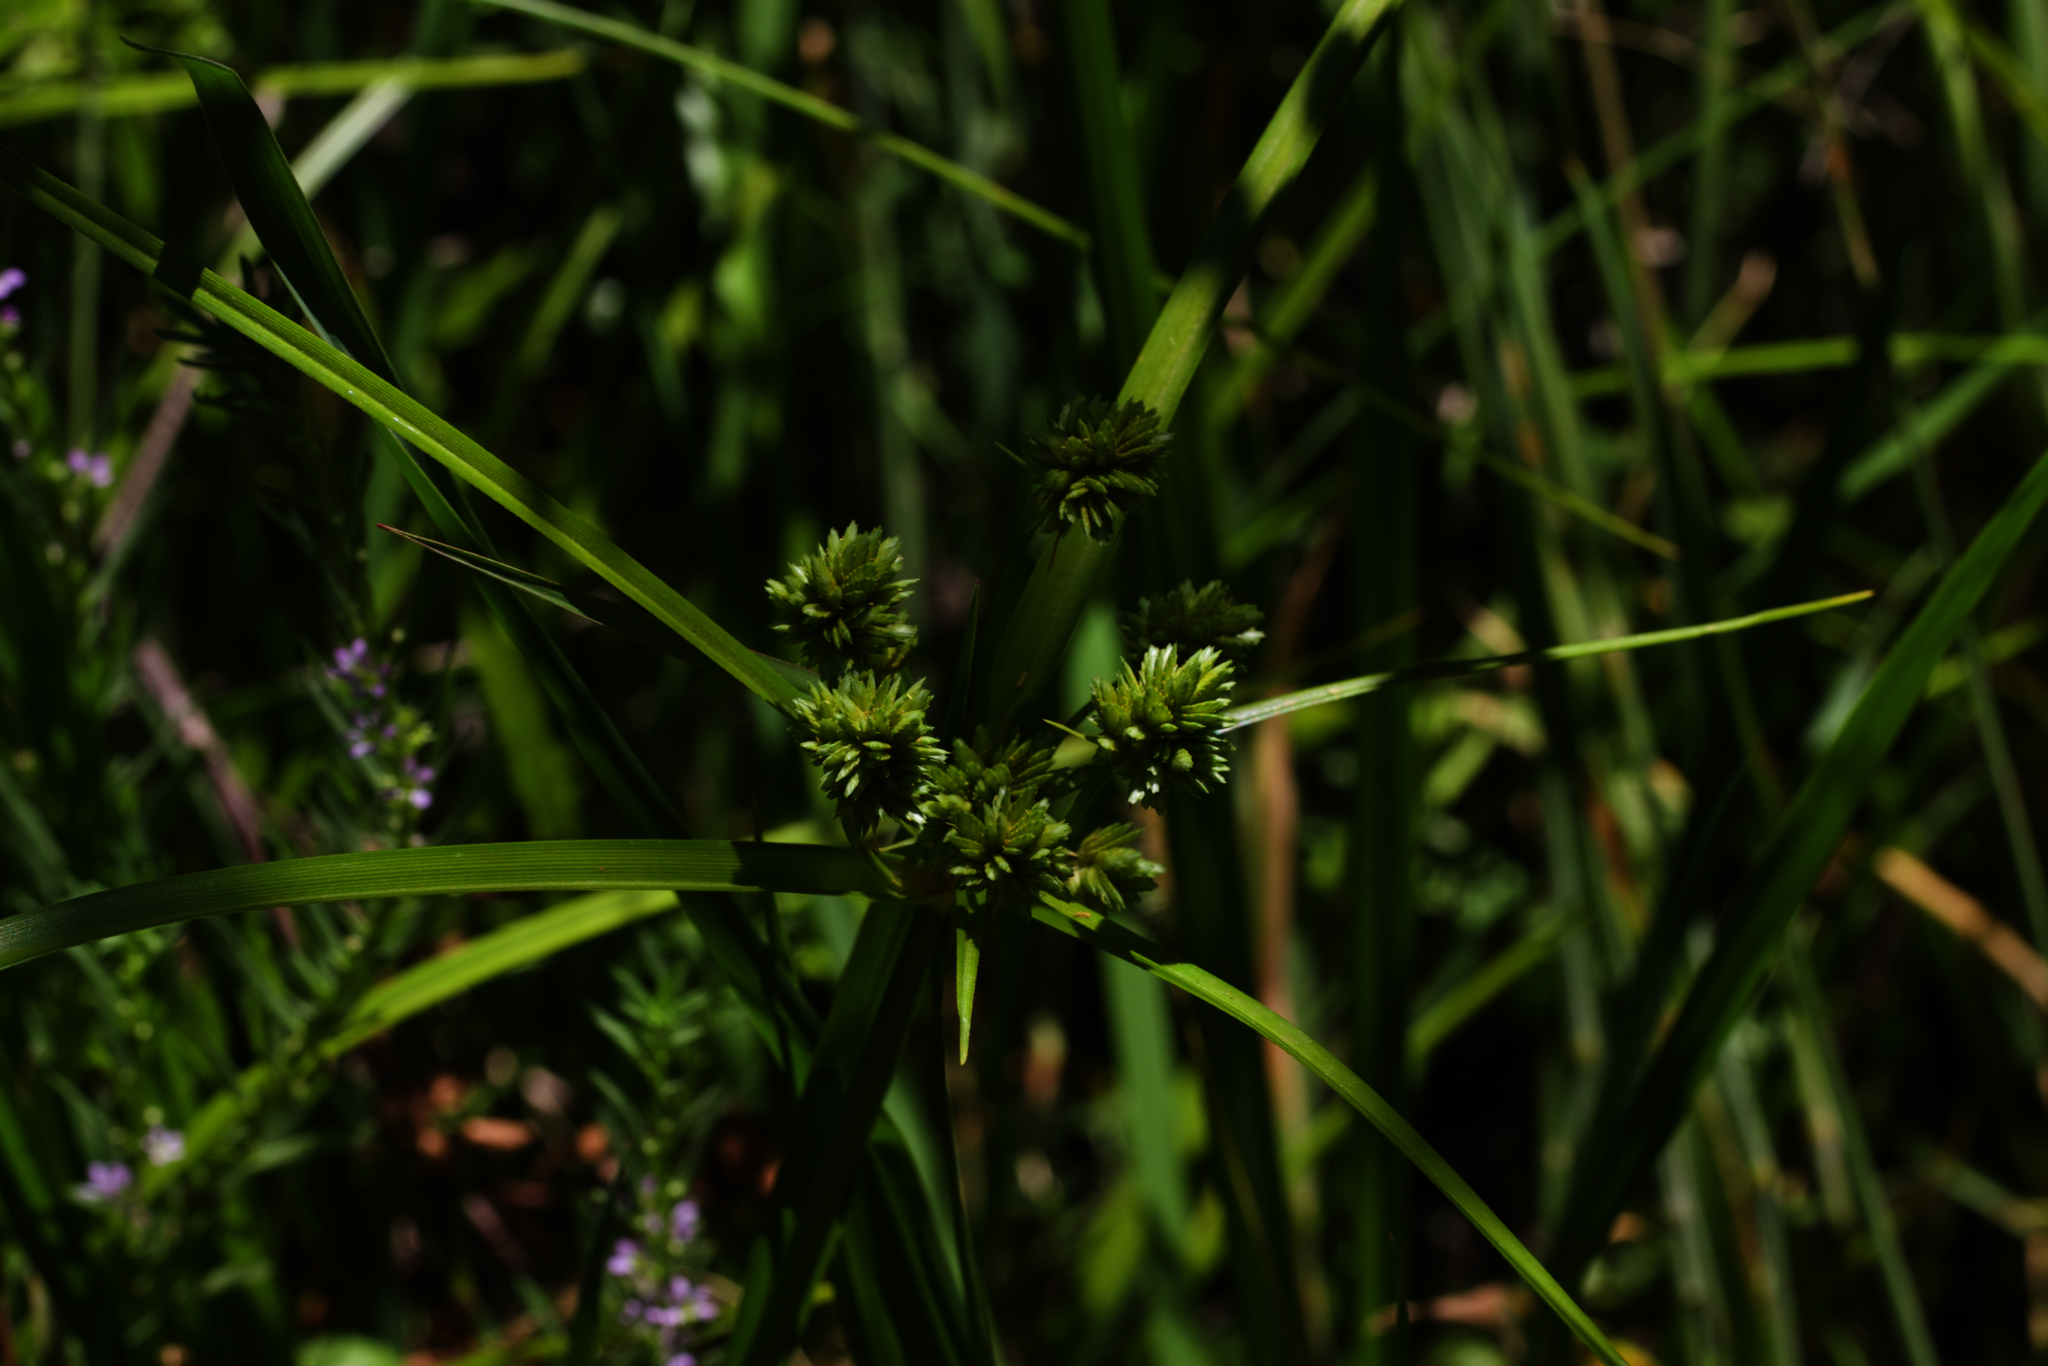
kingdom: Plantae
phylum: Tracheophyta
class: Liliopsida
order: Poales
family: Cyperaceae
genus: Cyperus
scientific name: Cyperus eragrostis
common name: Tall flatsedge
